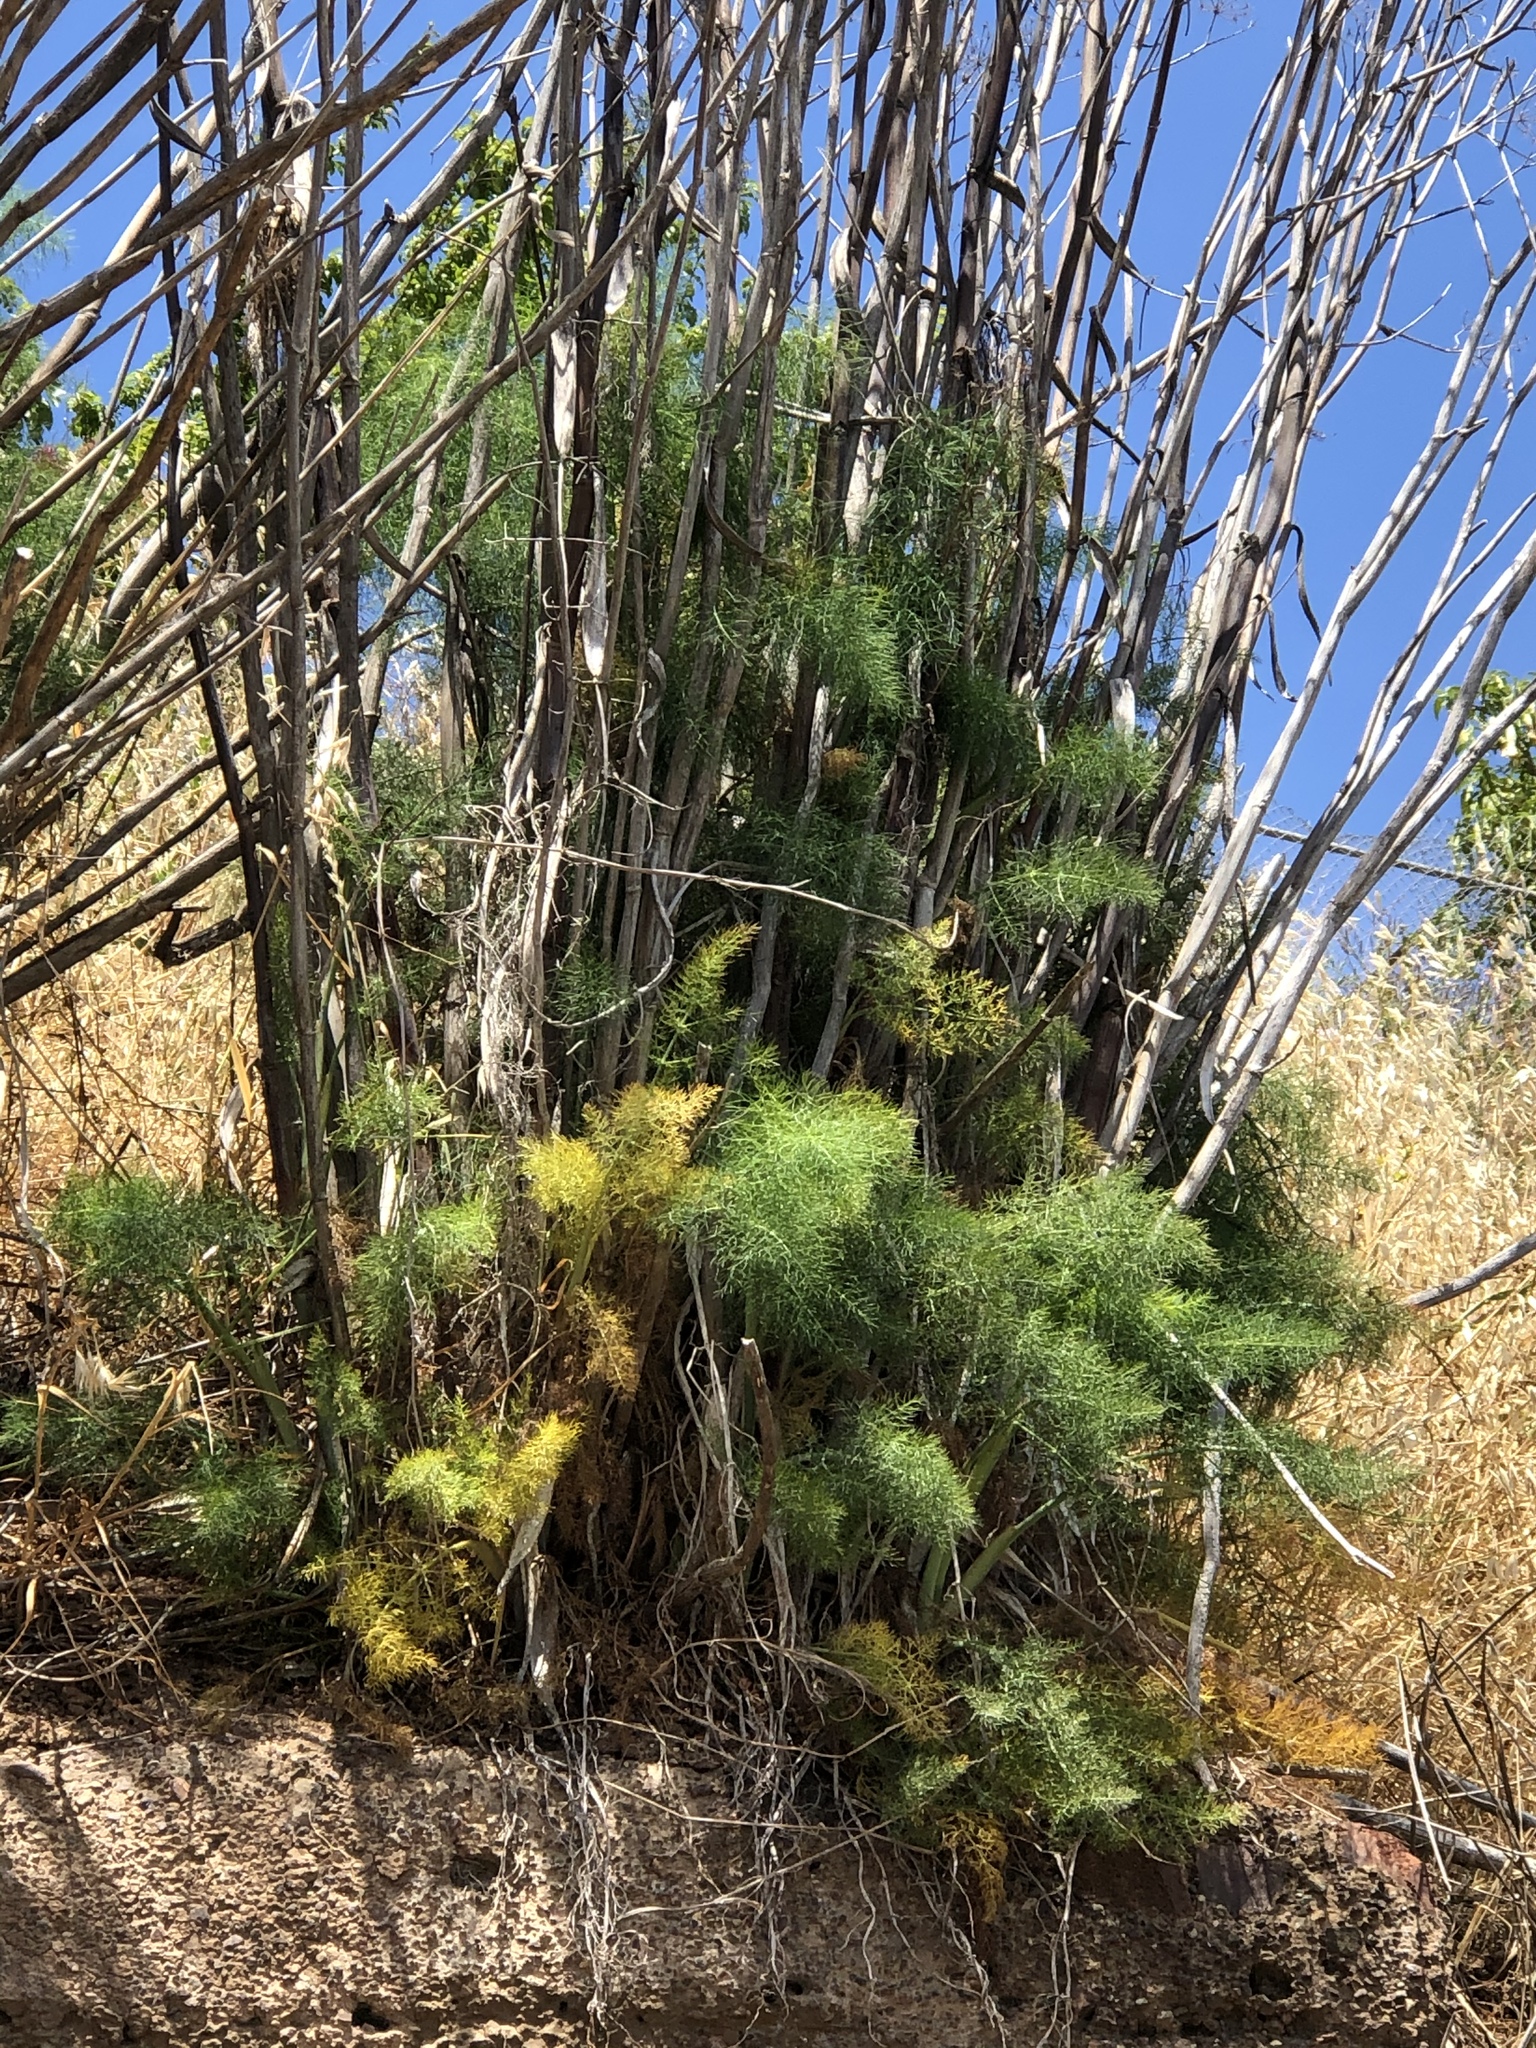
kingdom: Plantae
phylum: Tracheophyta
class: Magnoliopsida
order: Apiales
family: Apiaceae
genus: Foeniculum
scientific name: Foeniculum vulgare
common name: Fennel
